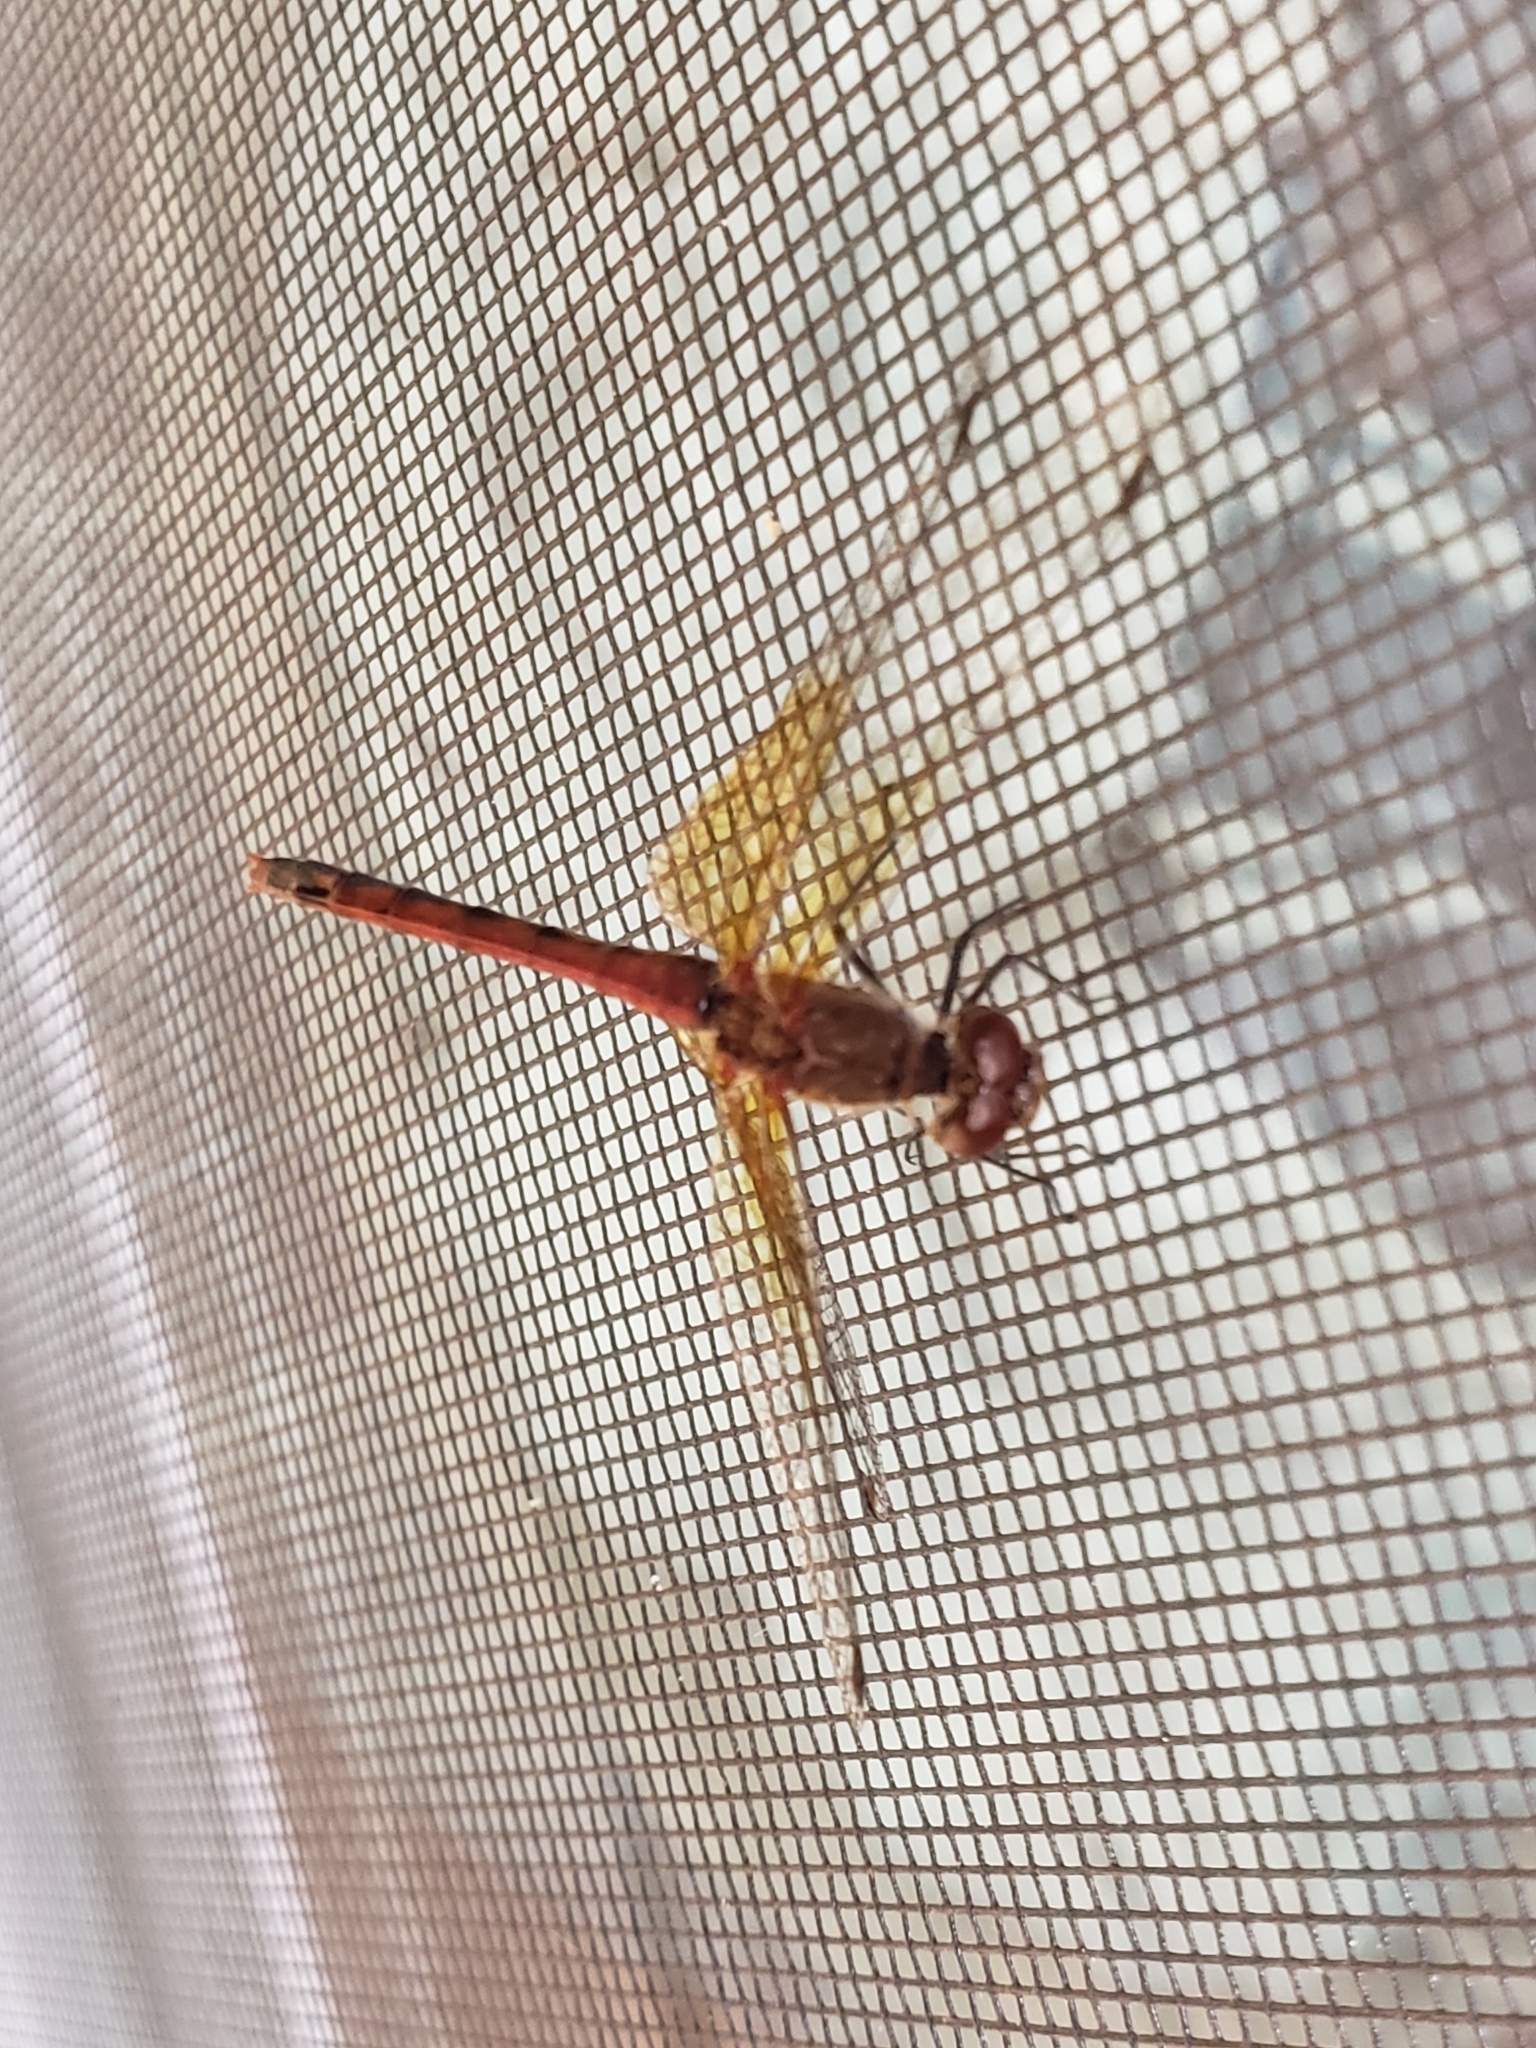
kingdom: Animalia
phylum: Arthropoda
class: Insecta
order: Odonata
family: Libellulidae
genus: Sympetrum
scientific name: Sympetrum semicinctum
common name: Band-winged meadowhawk
